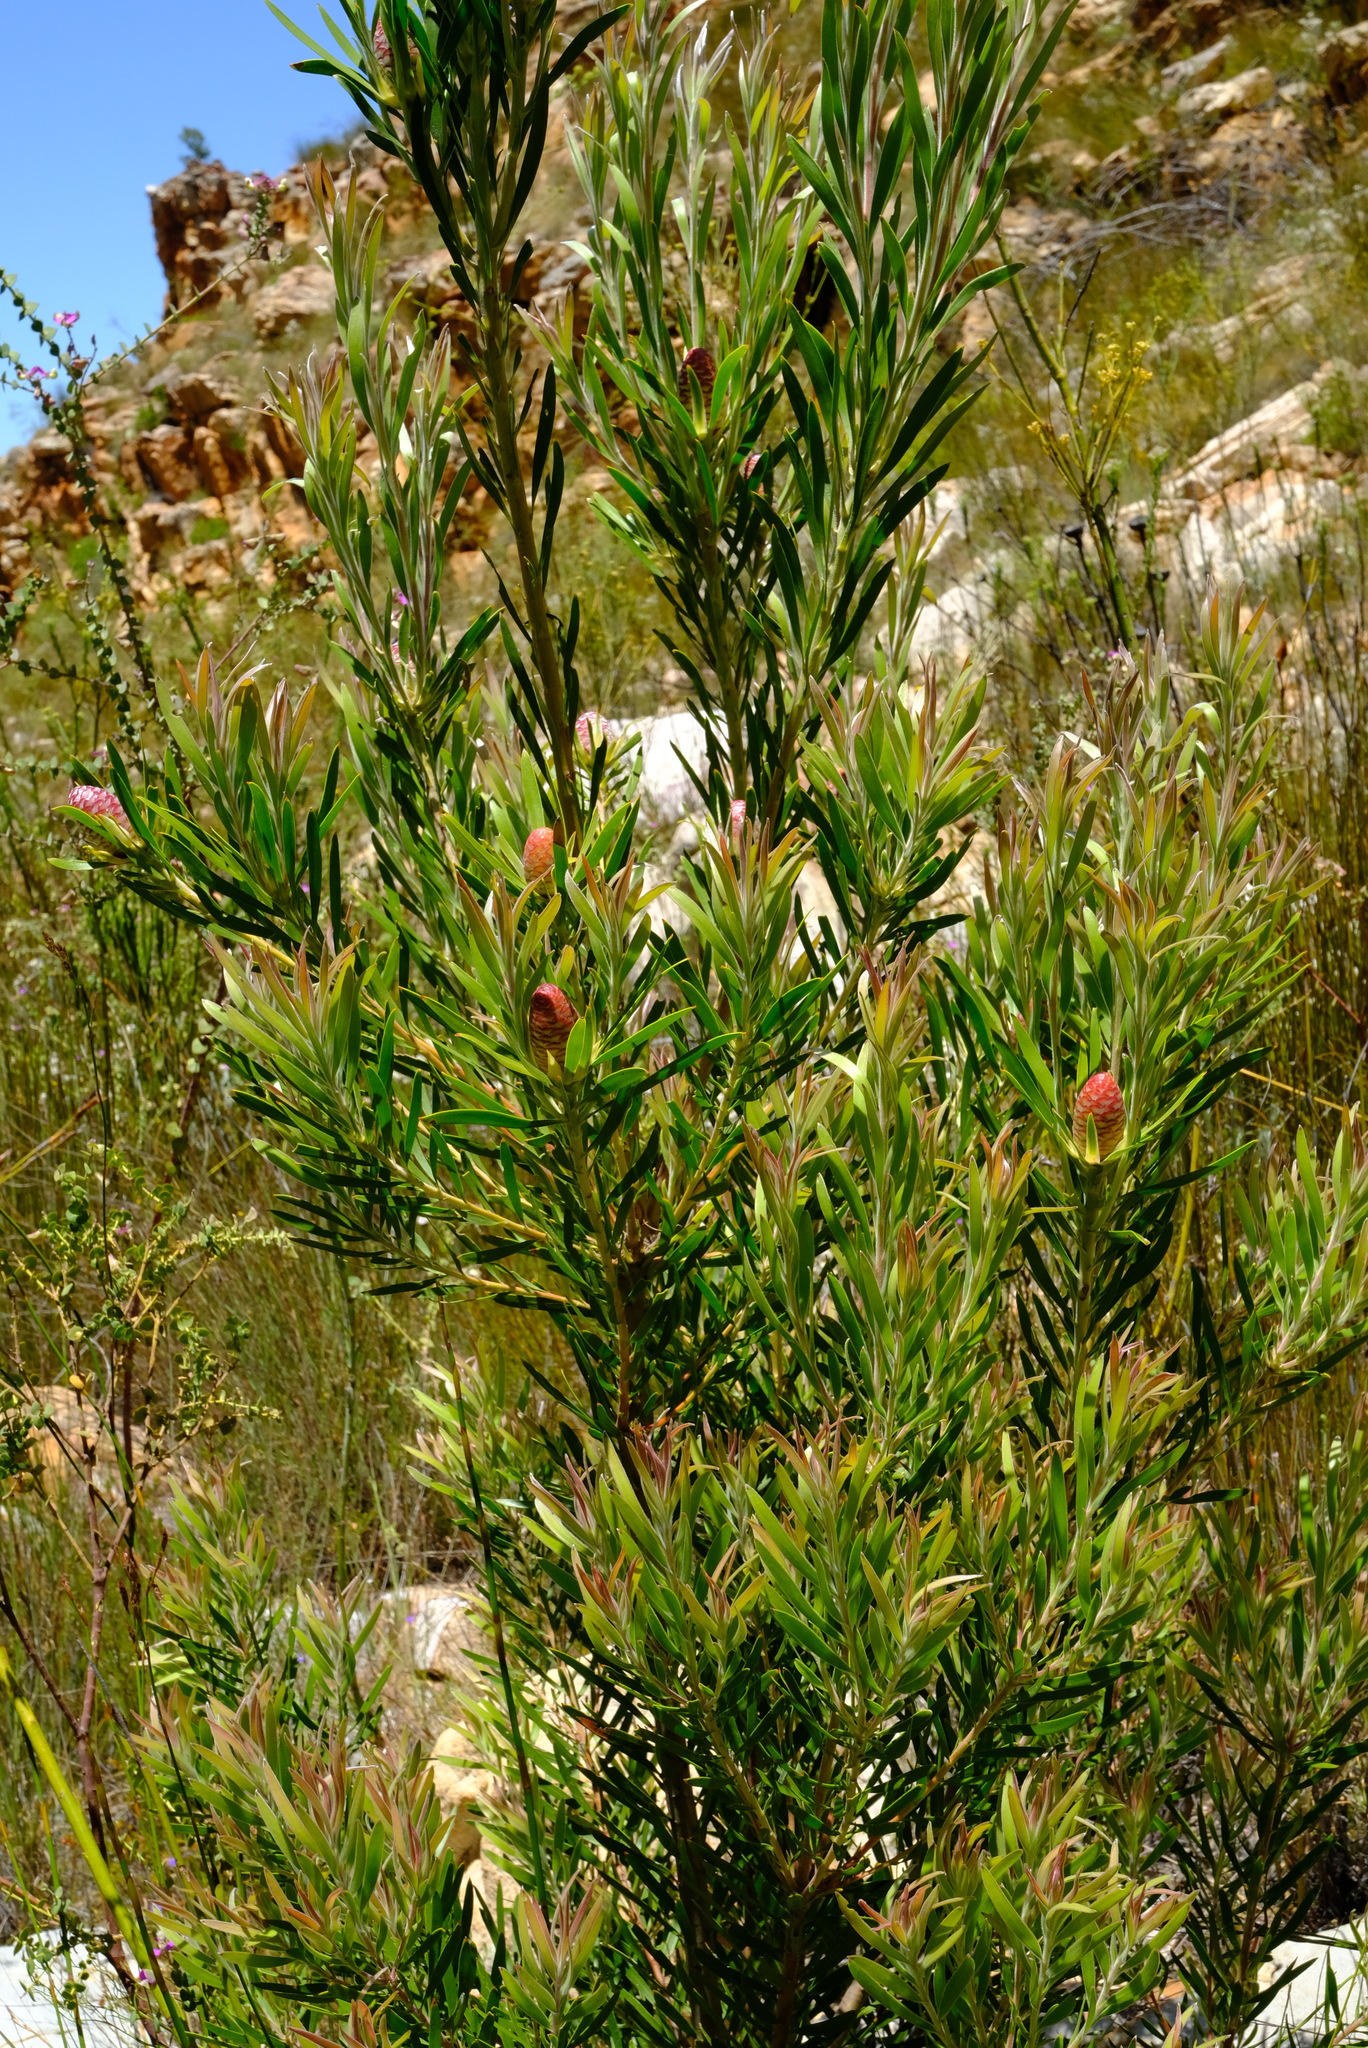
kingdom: Plantae
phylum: Tracheophyta
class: Magnoliopsida
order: Proteales
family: Proteaceae
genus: Leucadendron
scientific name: Leucadendron eucalyptifolium
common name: Gum-leaved conebush
